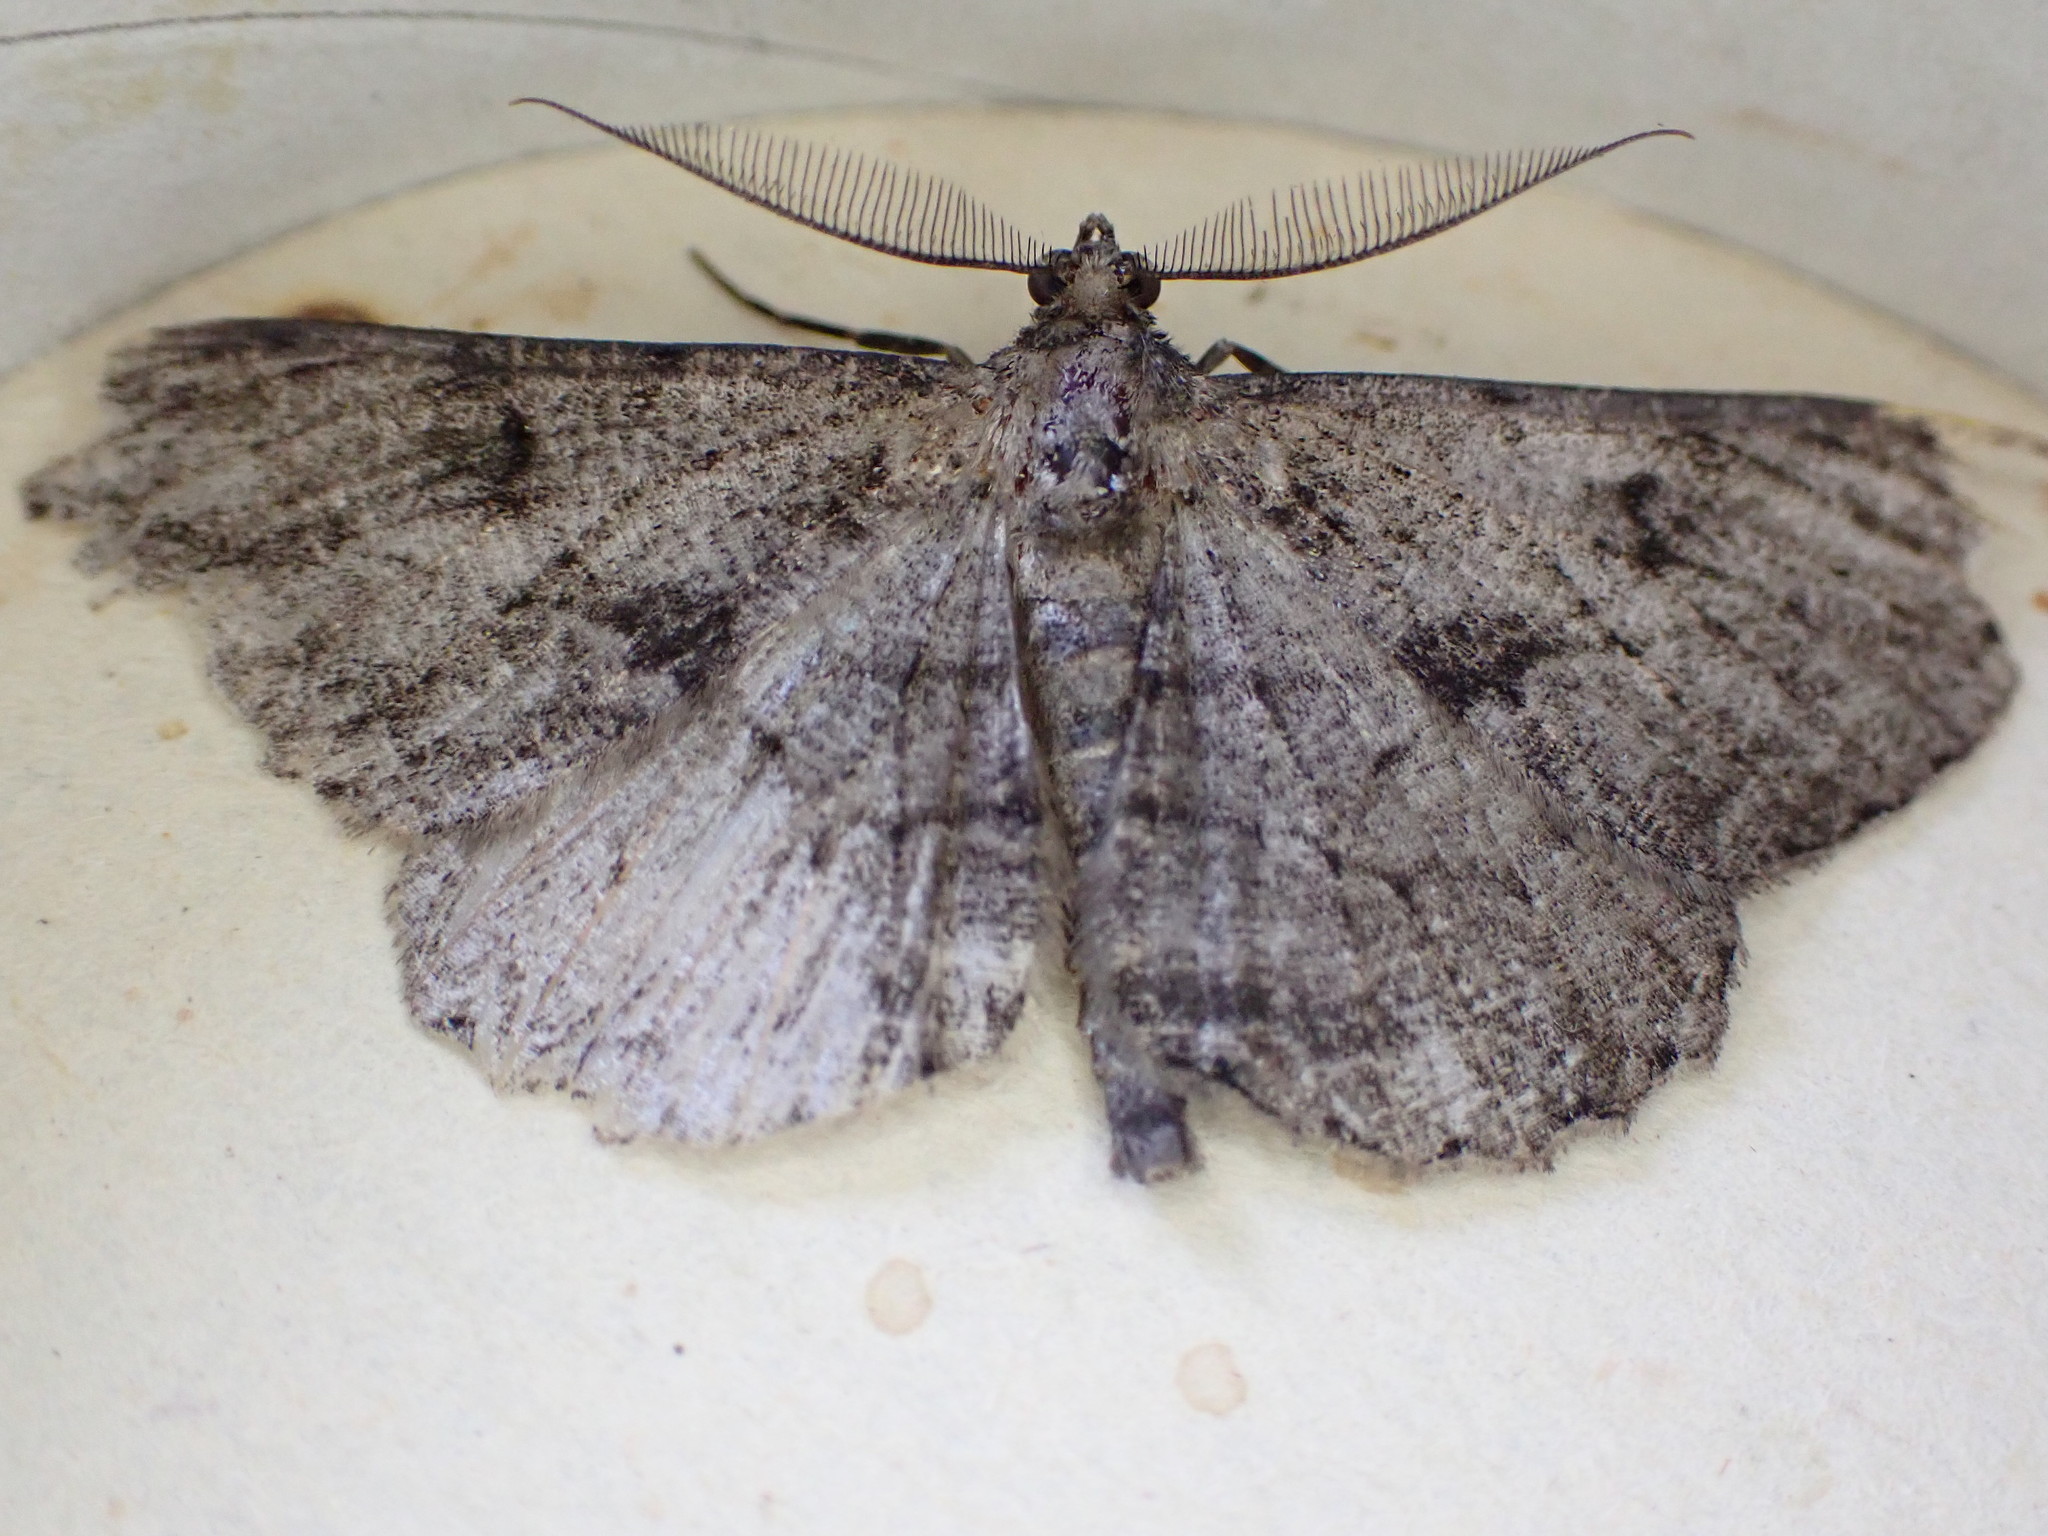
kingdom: Animalia
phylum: Arthropoda
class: Insecta
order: Lepidoptera
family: Geometridae
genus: Peribatodes
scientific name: Peribatodes rhomboidaria
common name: Willow beauty
